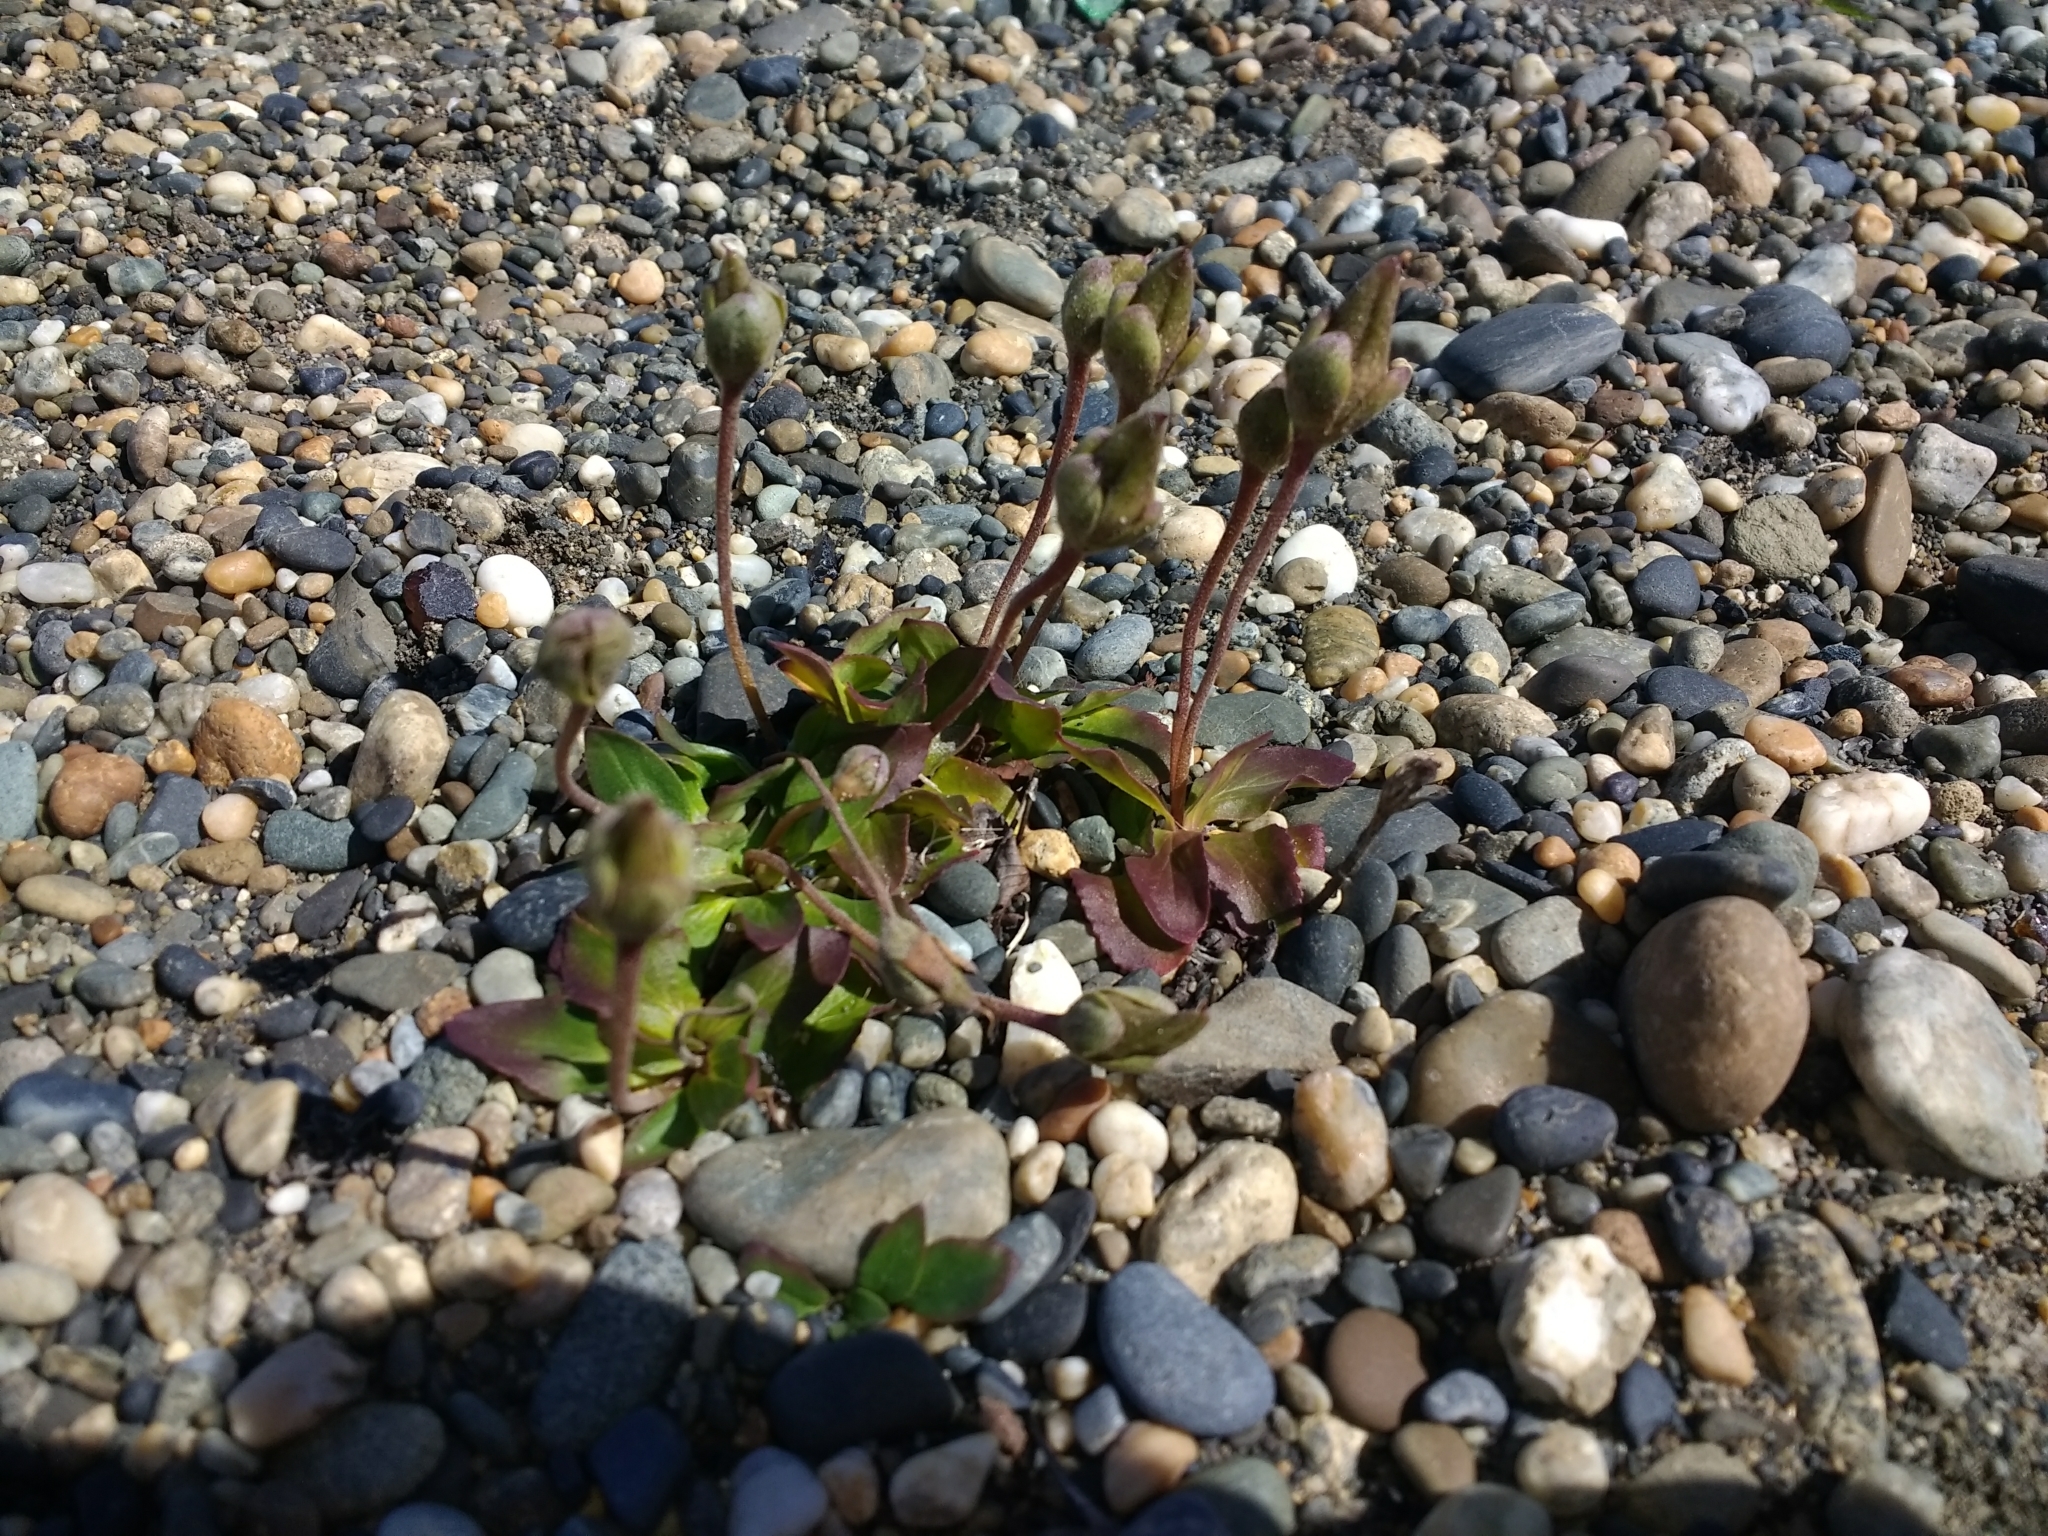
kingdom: Plantae
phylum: Tracheophyta
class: Magnoliopsida
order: Lamiales
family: Calceolariaceae
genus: Calceolaria
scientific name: Calceolaria uniflora
